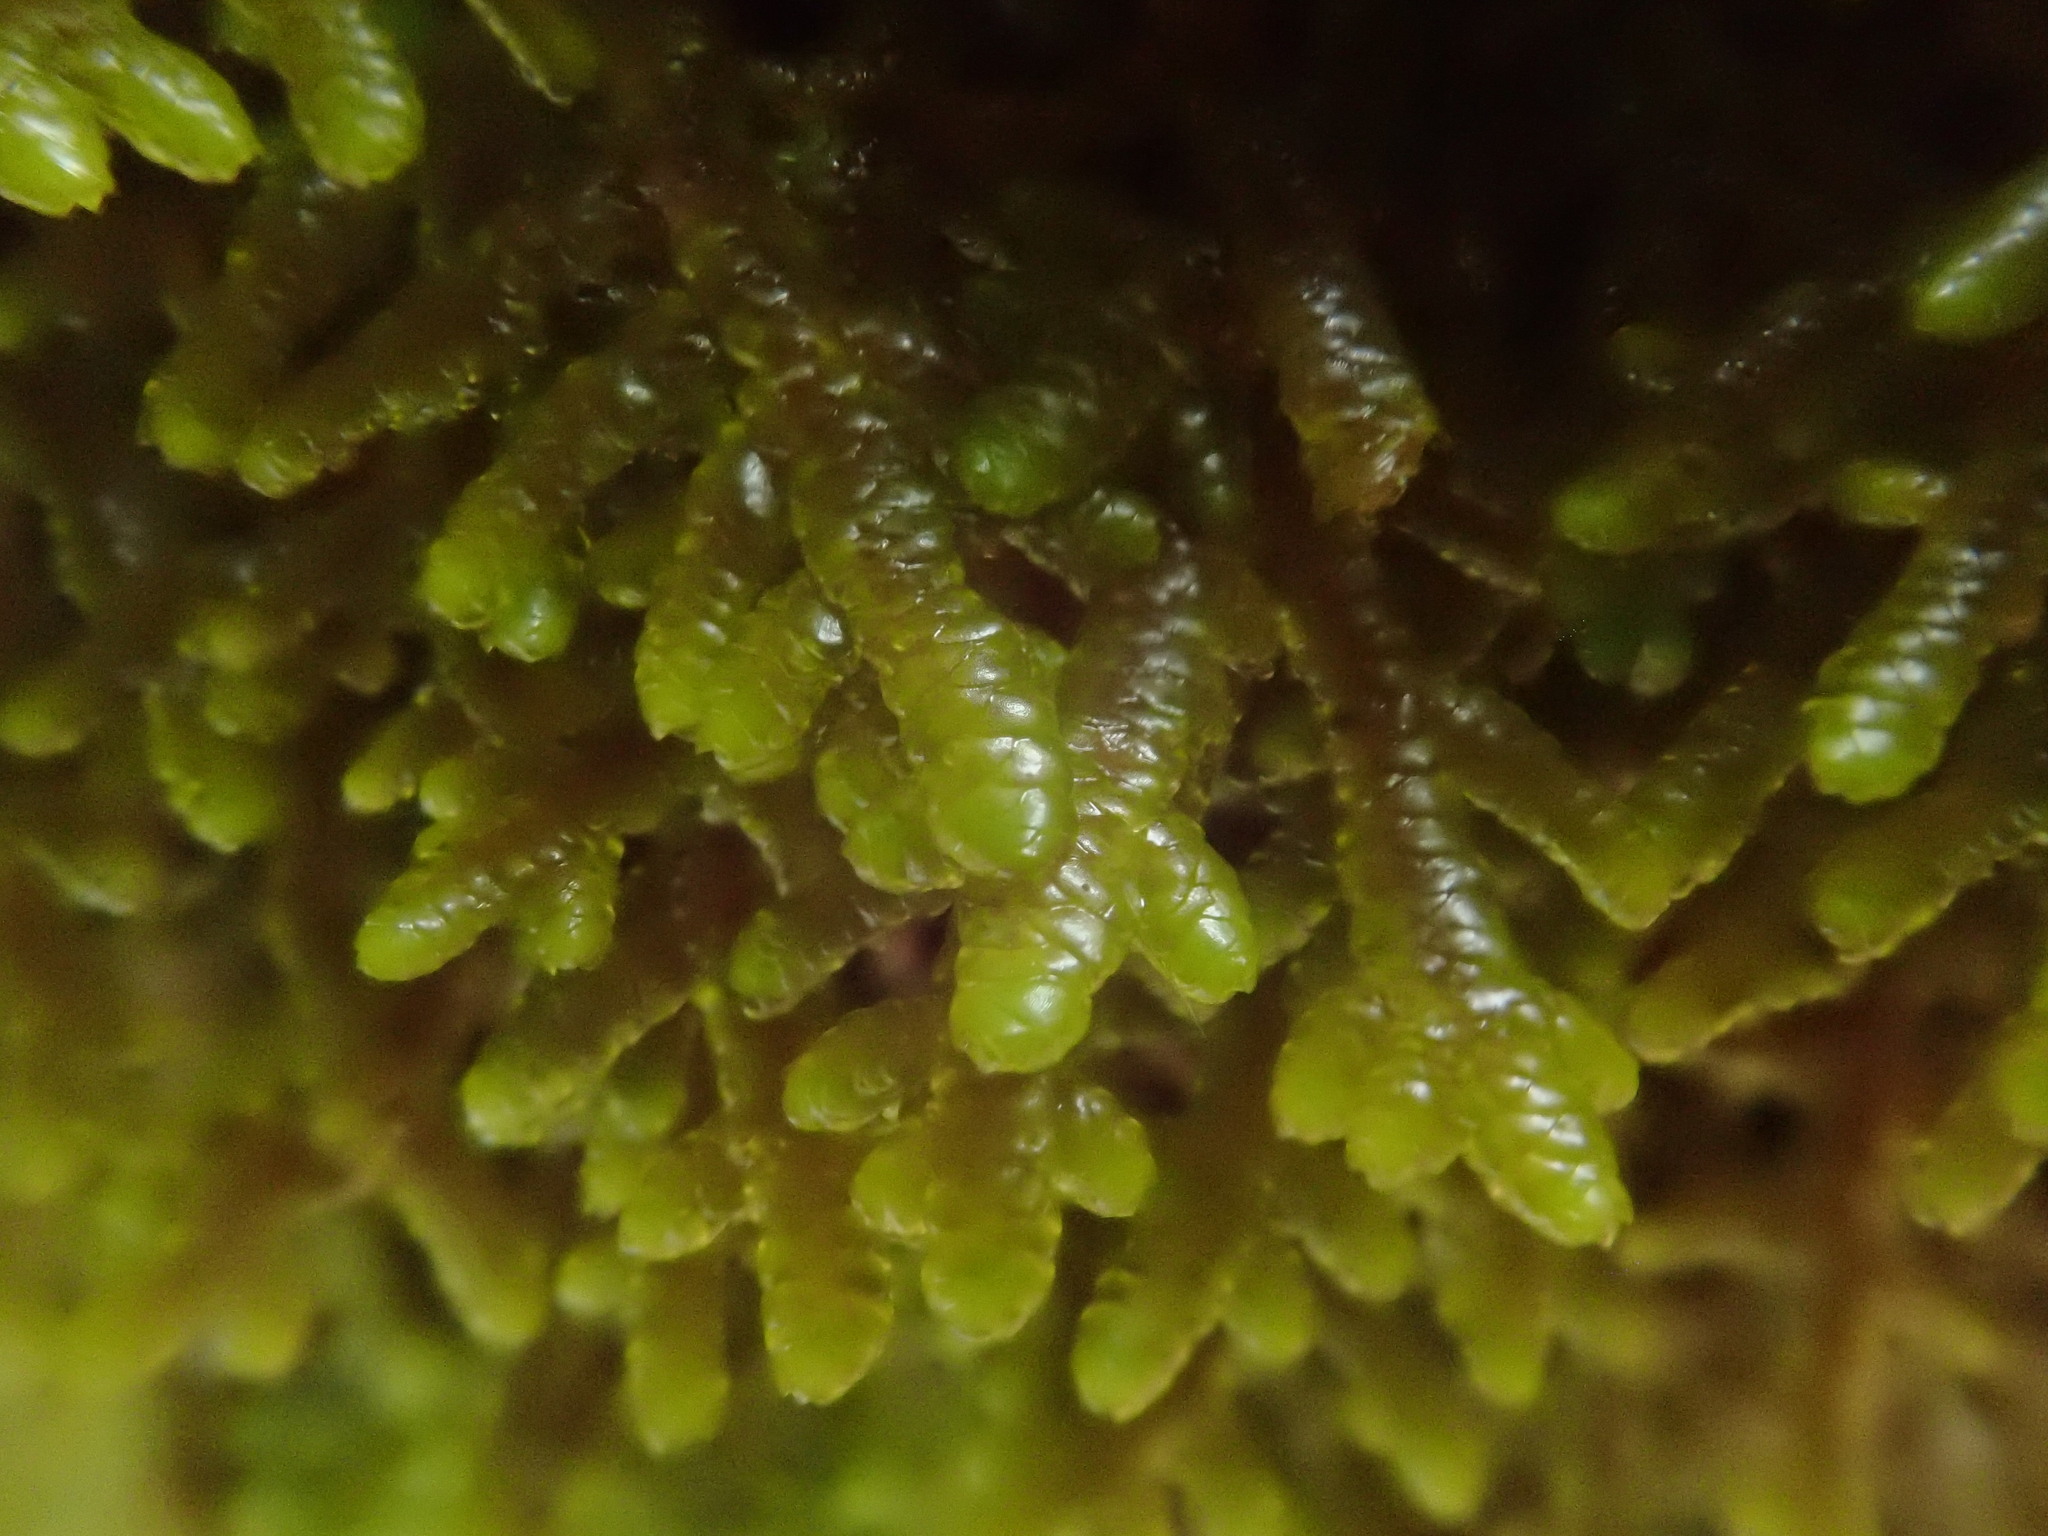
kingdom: Plantae
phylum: Marchantiophyta
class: Jungermanniopsida
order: Porellales
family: Porellaceae
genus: Porella
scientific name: Porella platyphylla
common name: Wall scalewort
